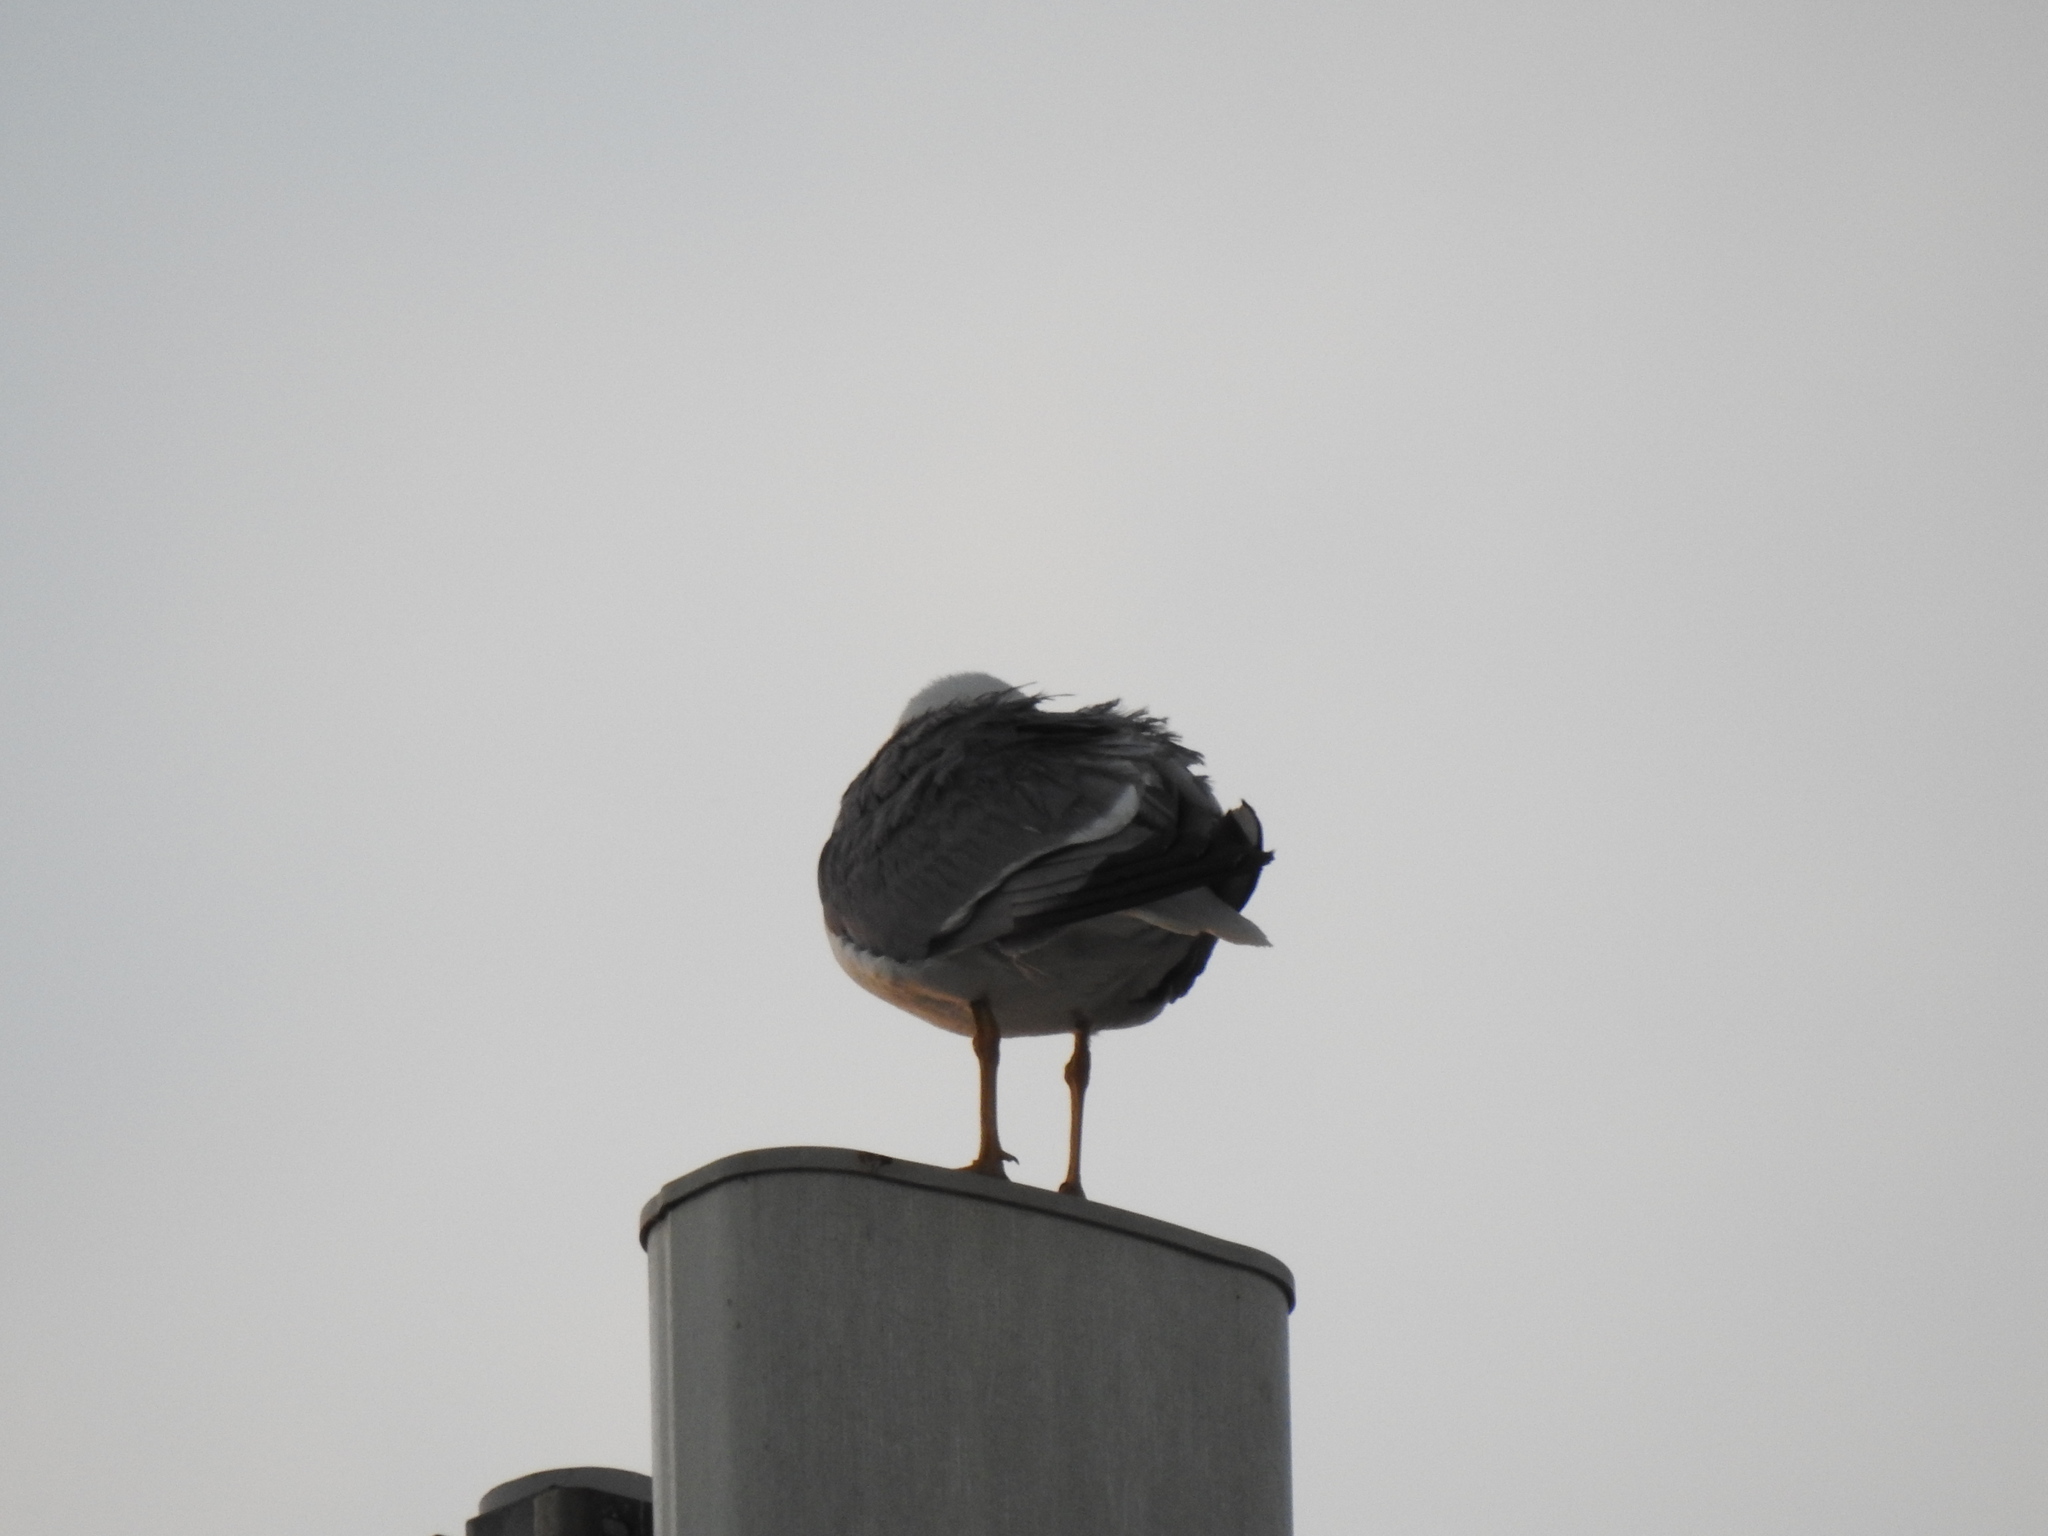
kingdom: Animalia
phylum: Chordata
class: Aves
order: Charadriiformes
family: Laridae
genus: Larus
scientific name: Larus michahellis
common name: Yellow-legged gull
